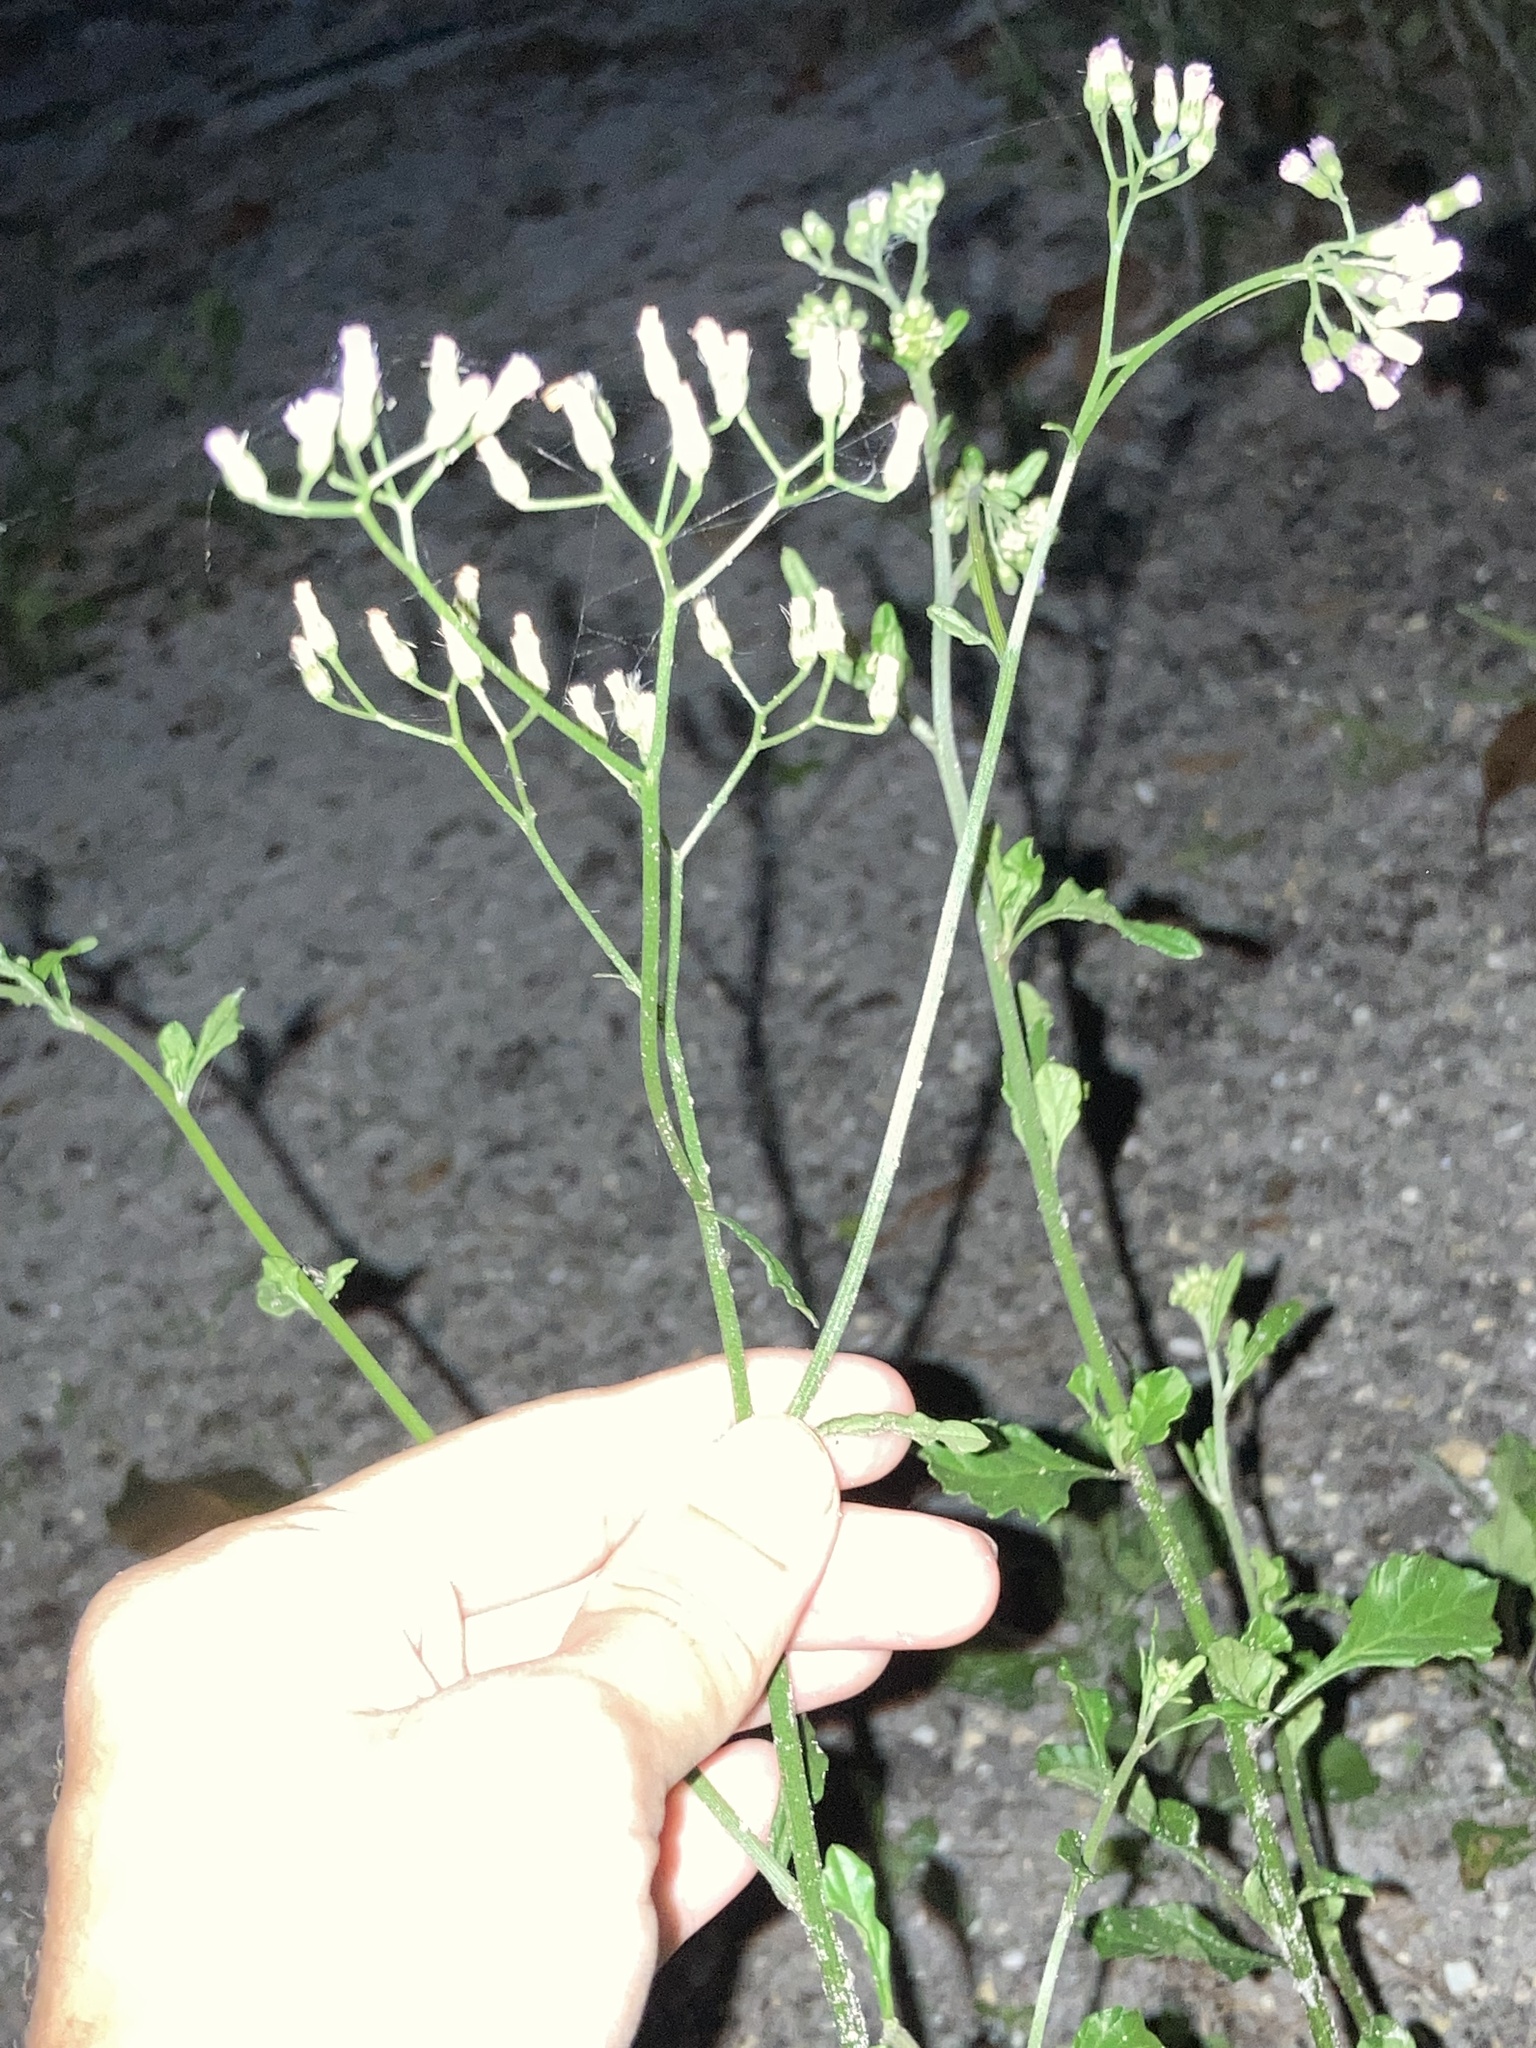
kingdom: Plantae
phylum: Tracheophyta
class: Magnoliopsida
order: Asterales
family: Asteraceae
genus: Cyanthillium
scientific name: Cyanthillium cinereum
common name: Little ironweed
